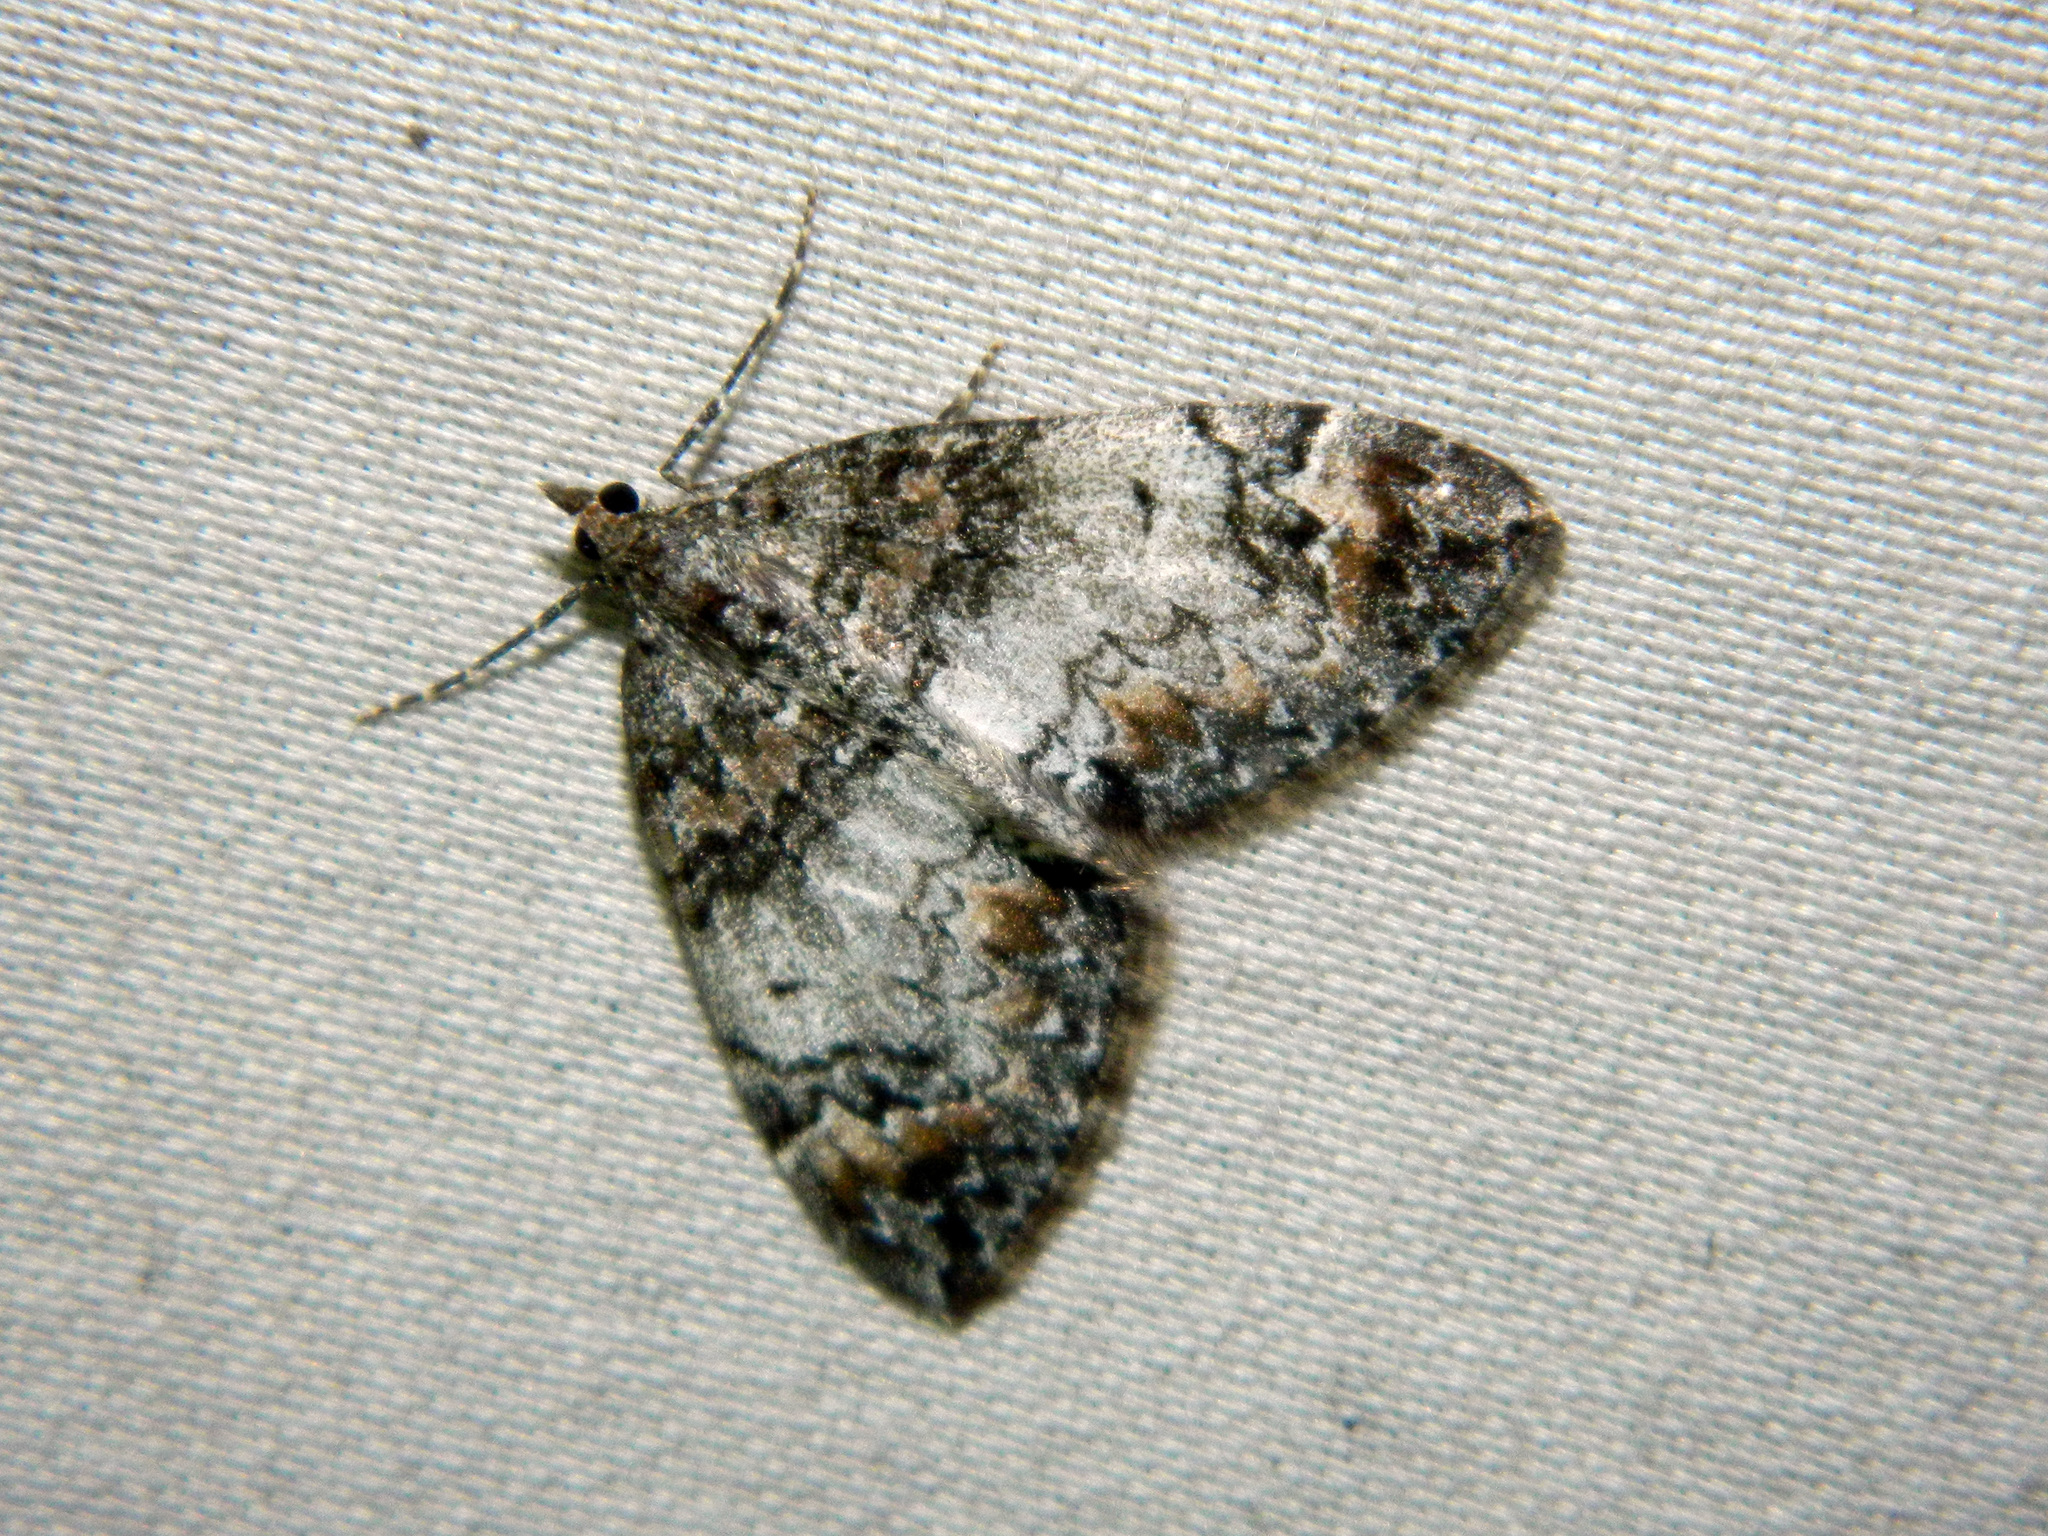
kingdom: Animalia
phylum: Arthropoda
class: Insecta
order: Lepidoptera
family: Geometridae
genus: Dysstroma
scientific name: Dysstroma citrata
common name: Dark marbled carpet
